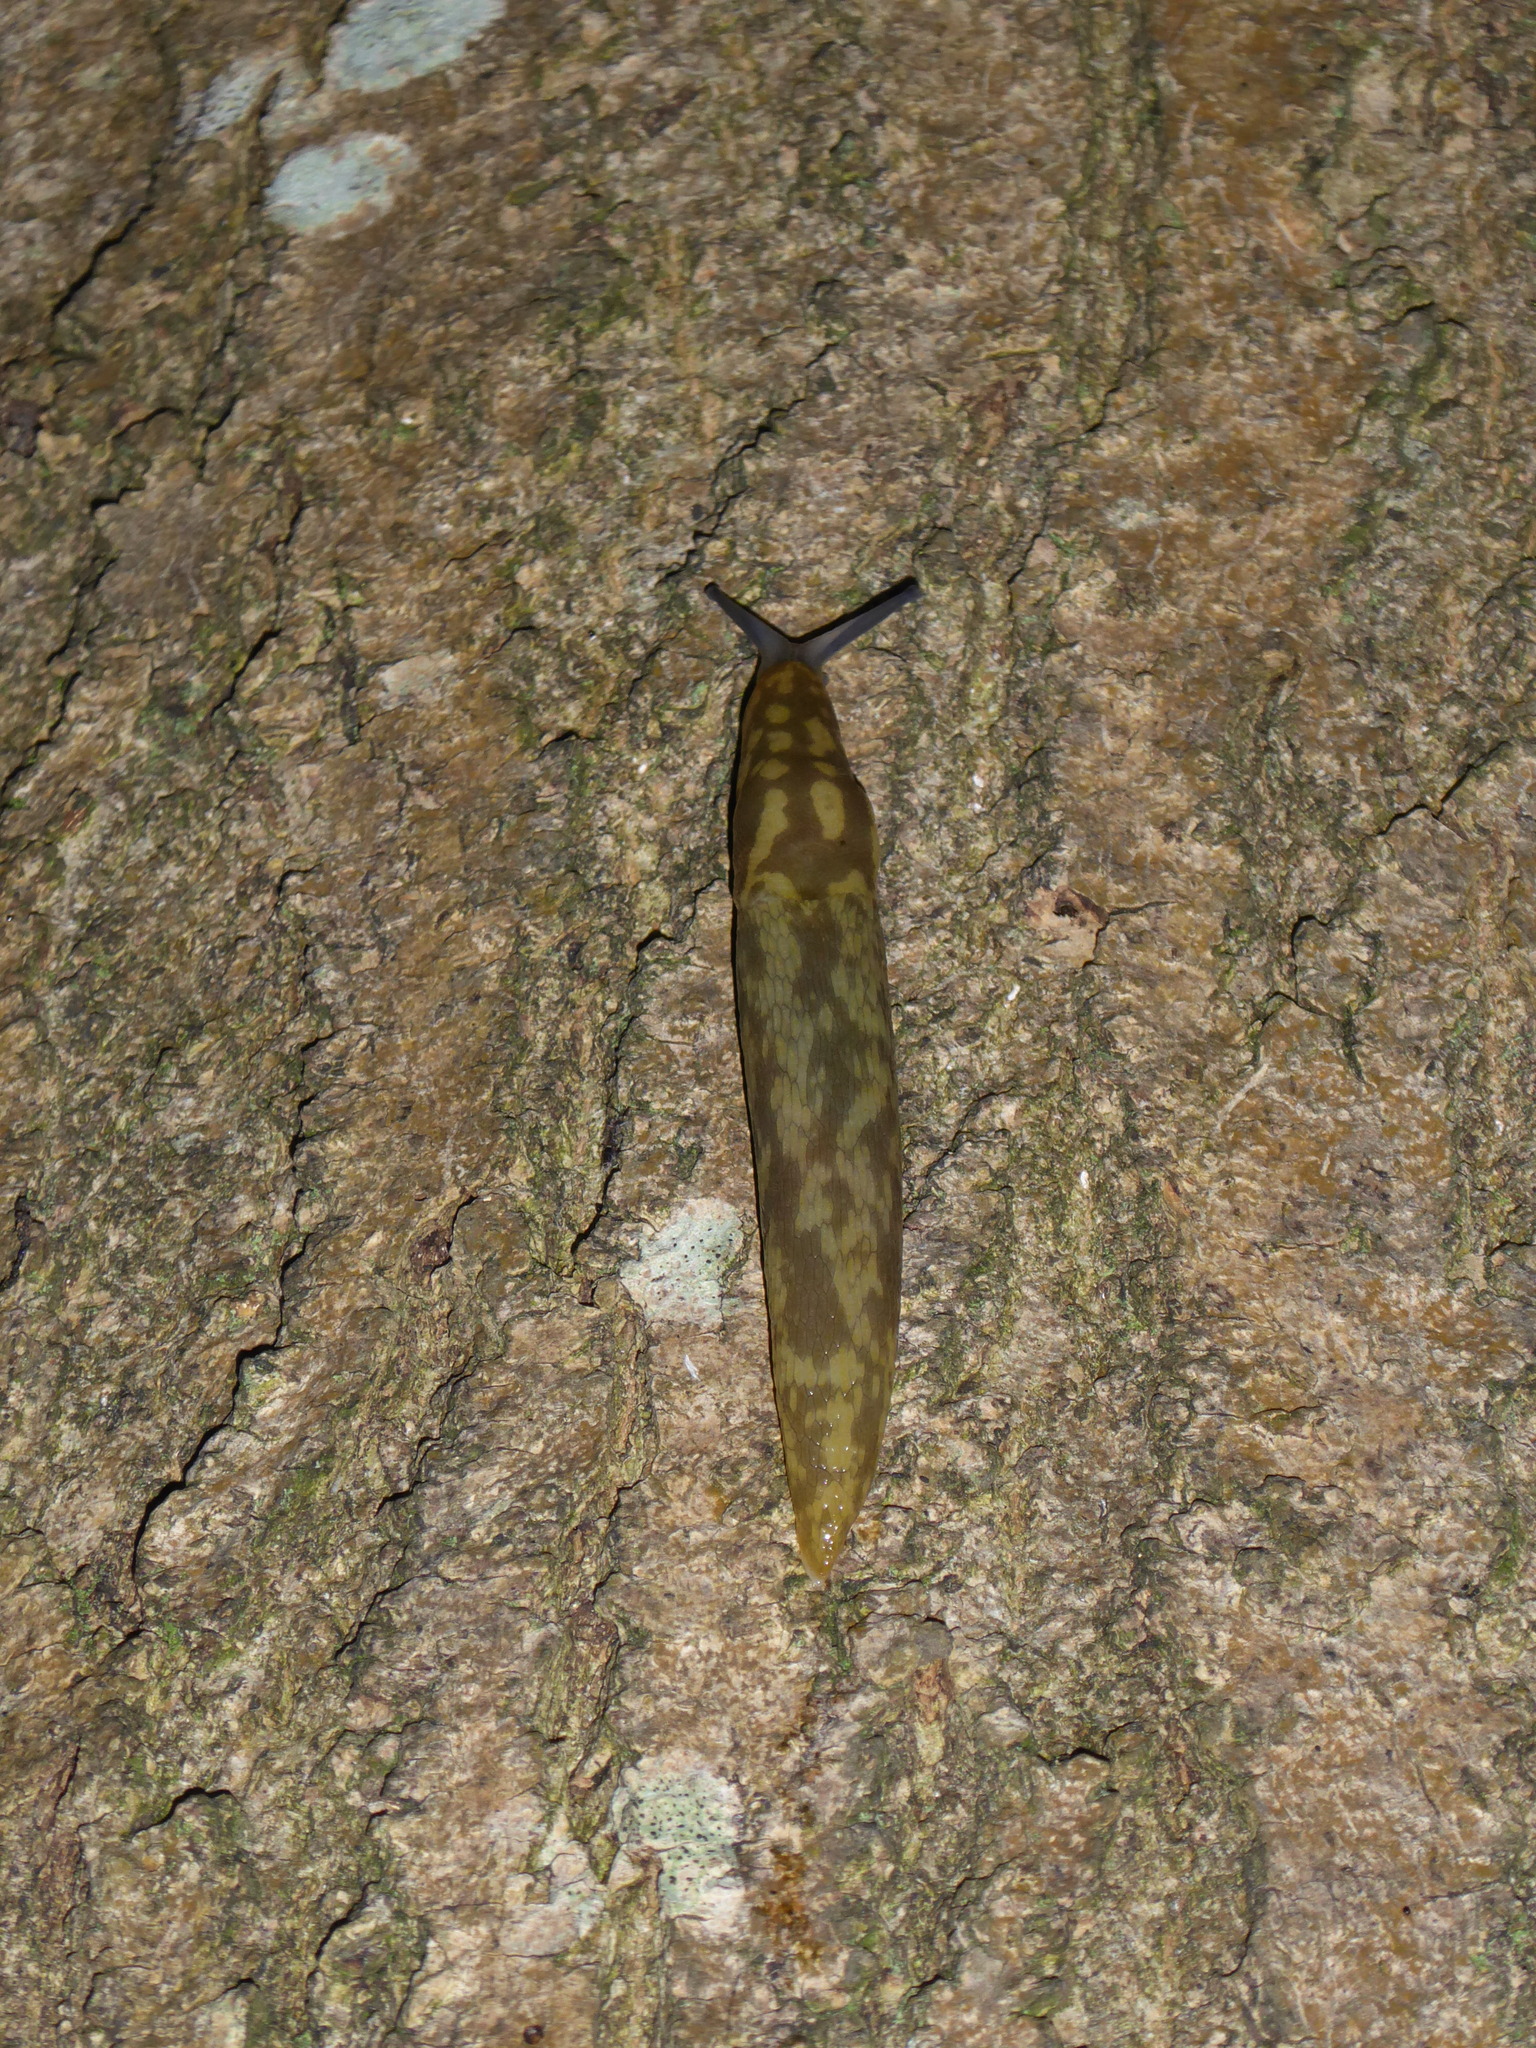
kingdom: Animalia
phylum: Mollusca
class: Gastropoda
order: Stylommatophora
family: Limacidae
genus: Limacus
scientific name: Limacus maculatus
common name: Irish yellow slug
